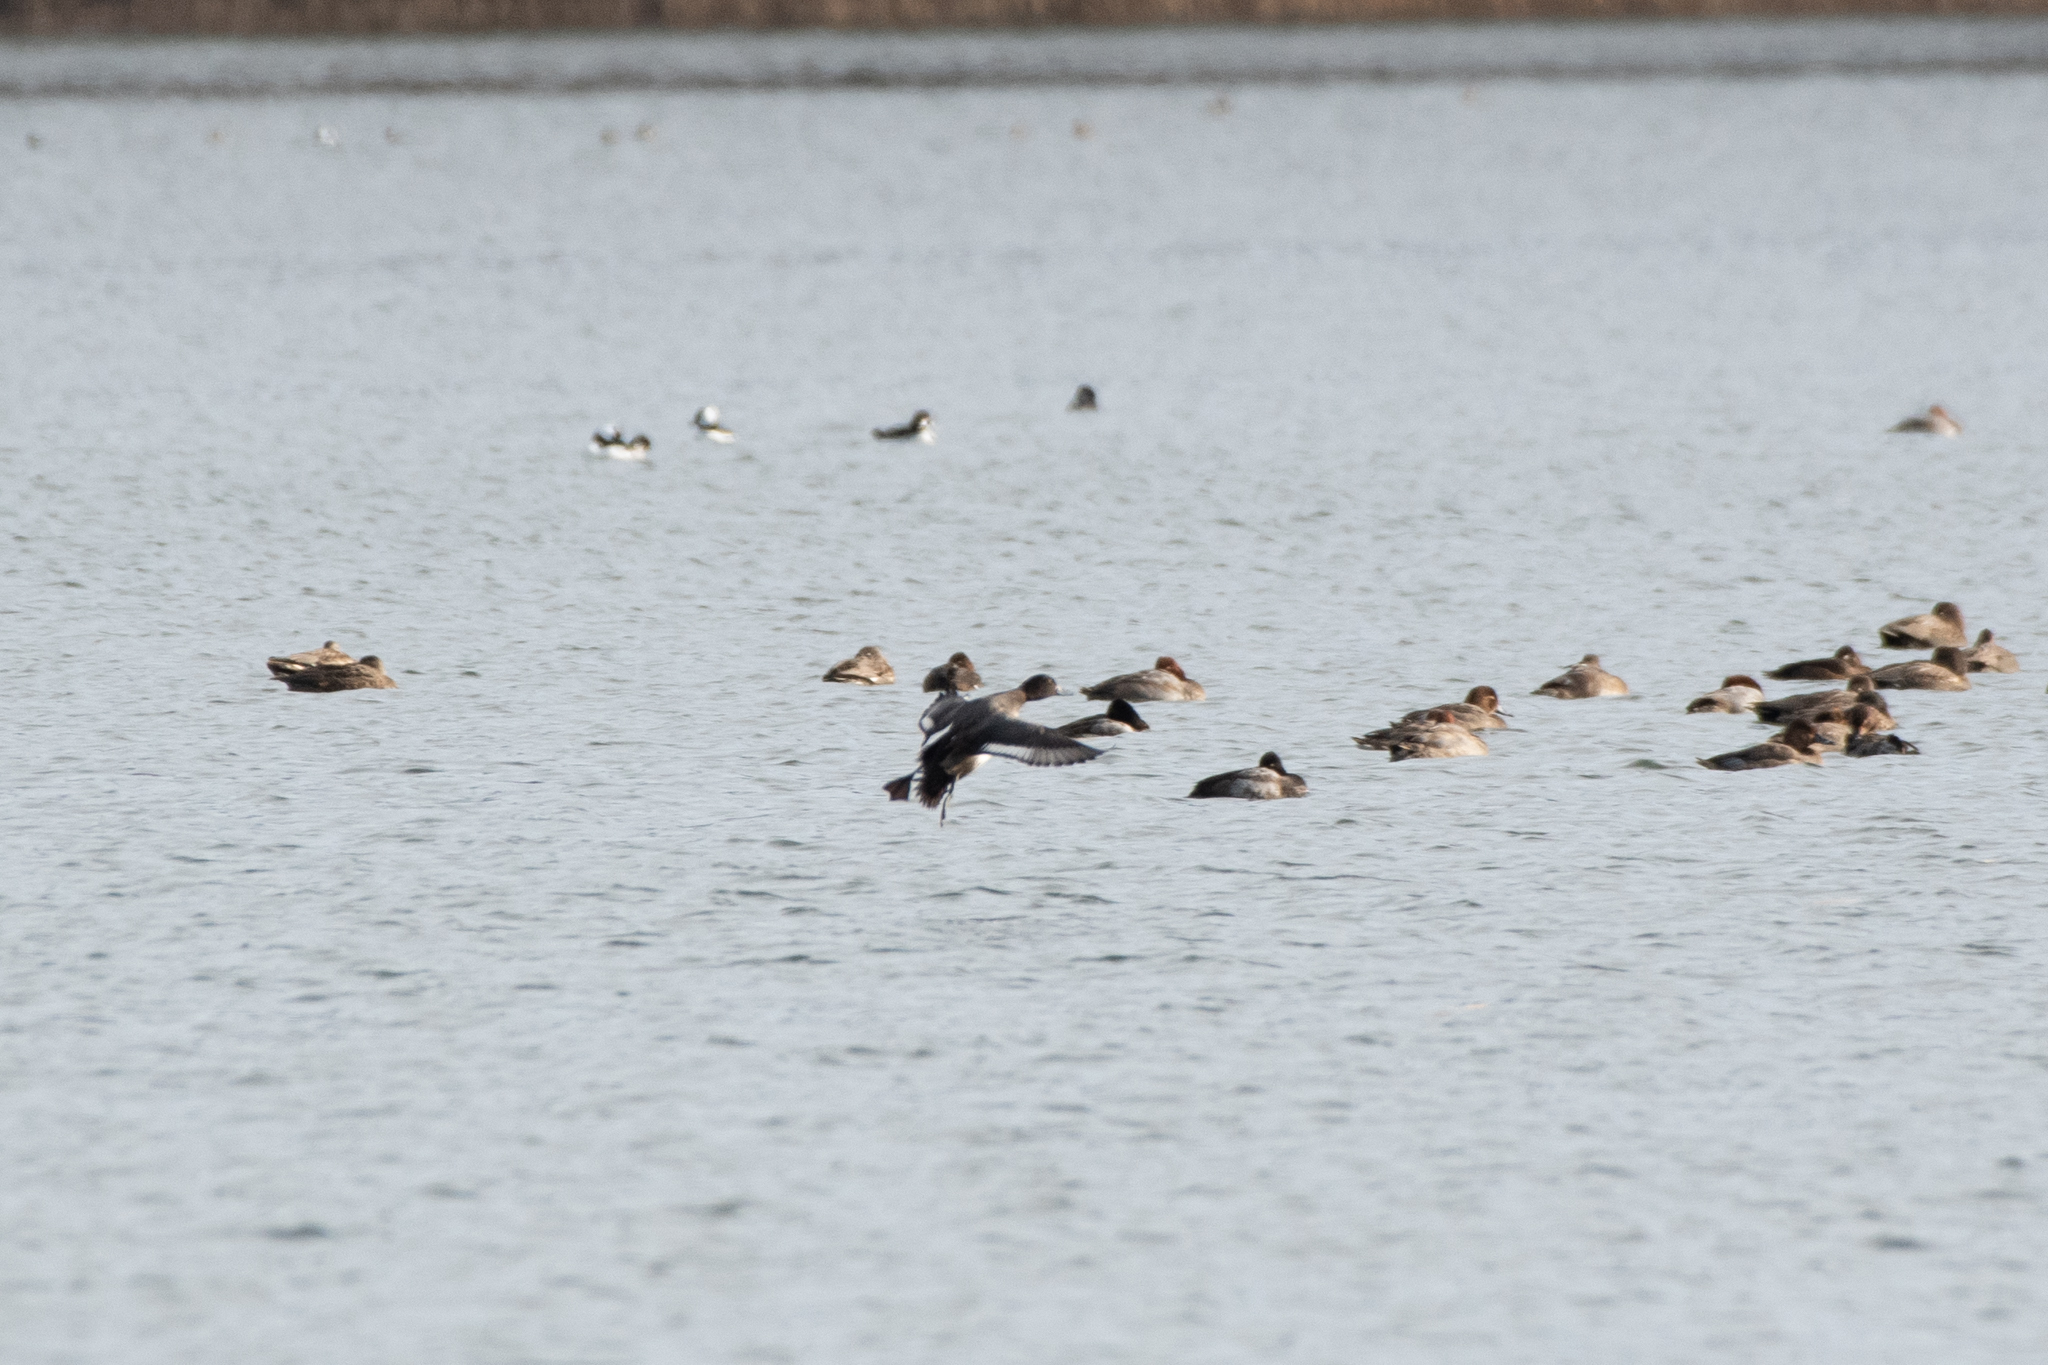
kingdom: Animalia
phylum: Chordata
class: Aves
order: Anseriformes
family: Anatidae
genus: Aythya
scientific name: Aythya affinis
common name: Lesser scaup
